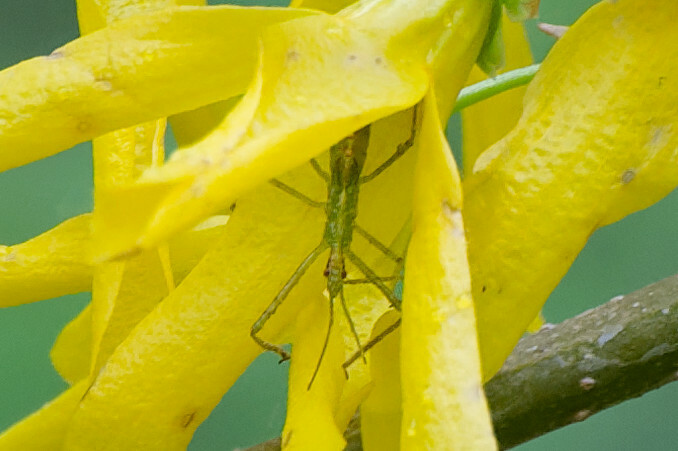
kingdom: Animalia
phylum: Arthropoda
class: Insecta
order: Hemiptera
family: Reduviidae
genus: Zelus
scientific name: Zelus luridus
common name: Pale green assassin bug
